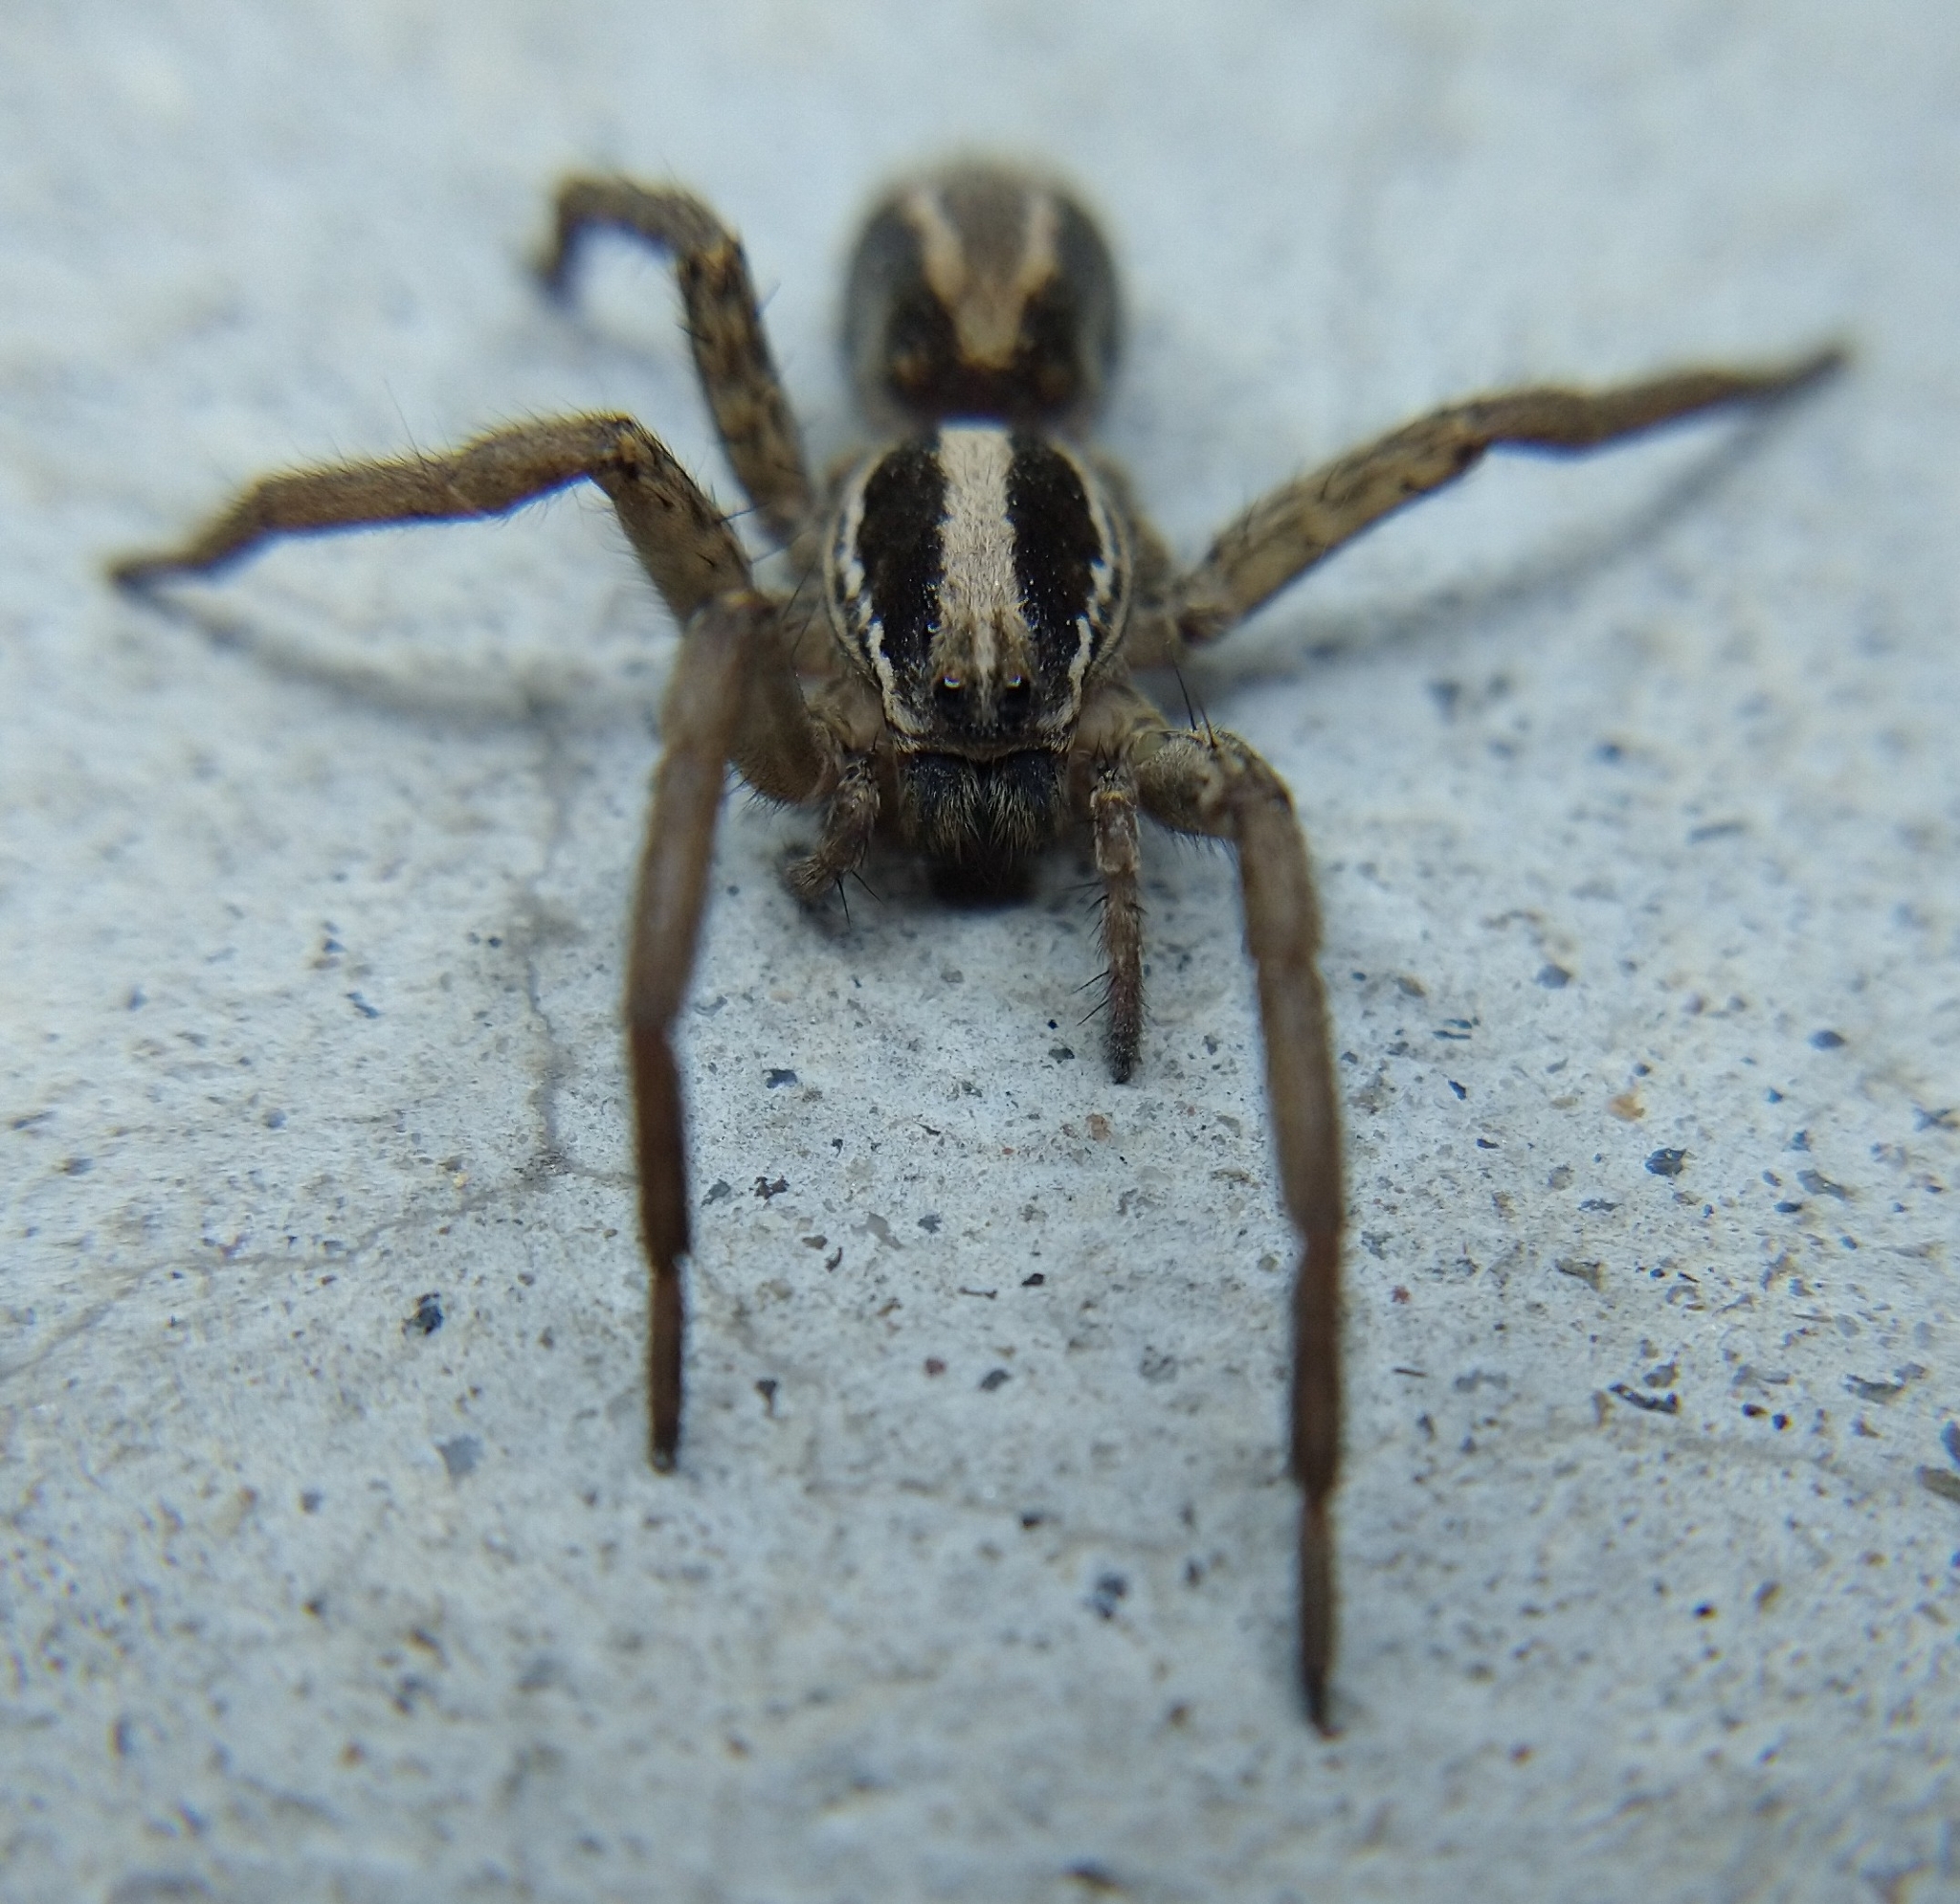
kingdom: Animalia
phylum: Arthropoda
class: Arachnida
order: Araneae
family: Lycosidae
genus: Schizocosa
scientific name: Schizocosa mccooki
